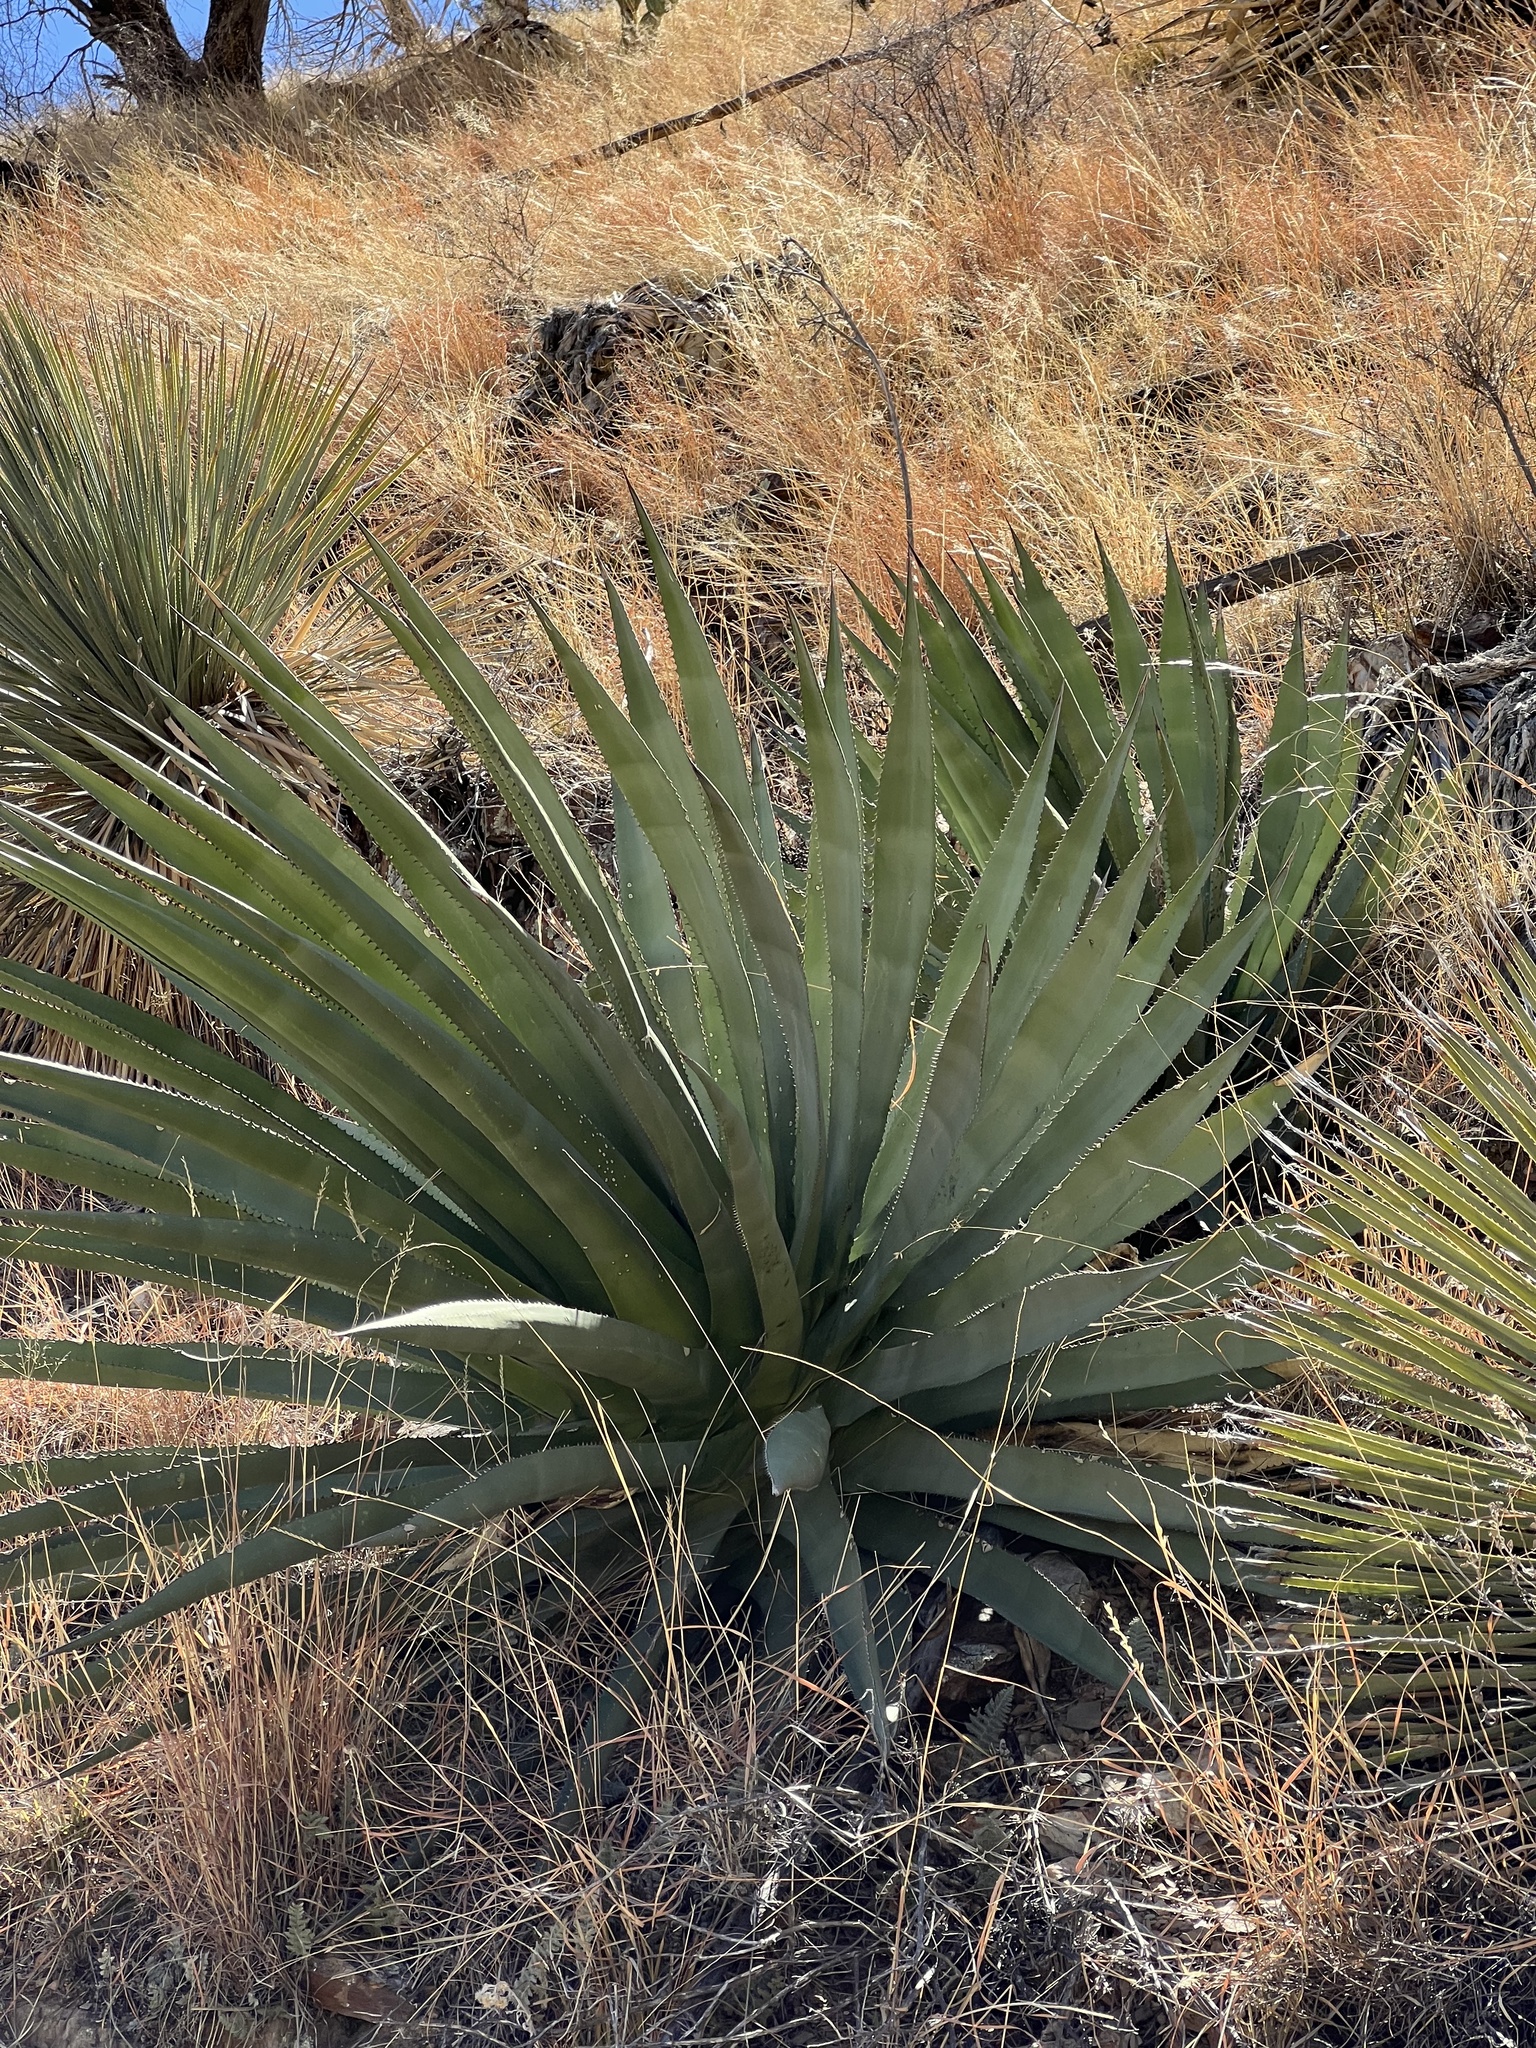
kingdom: Plantae
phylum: Tracheophyta
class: Liliopsida
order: Asparagales
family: Asparagaceae
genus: Agave
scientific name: Agave palmeri
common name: Palmer agave
